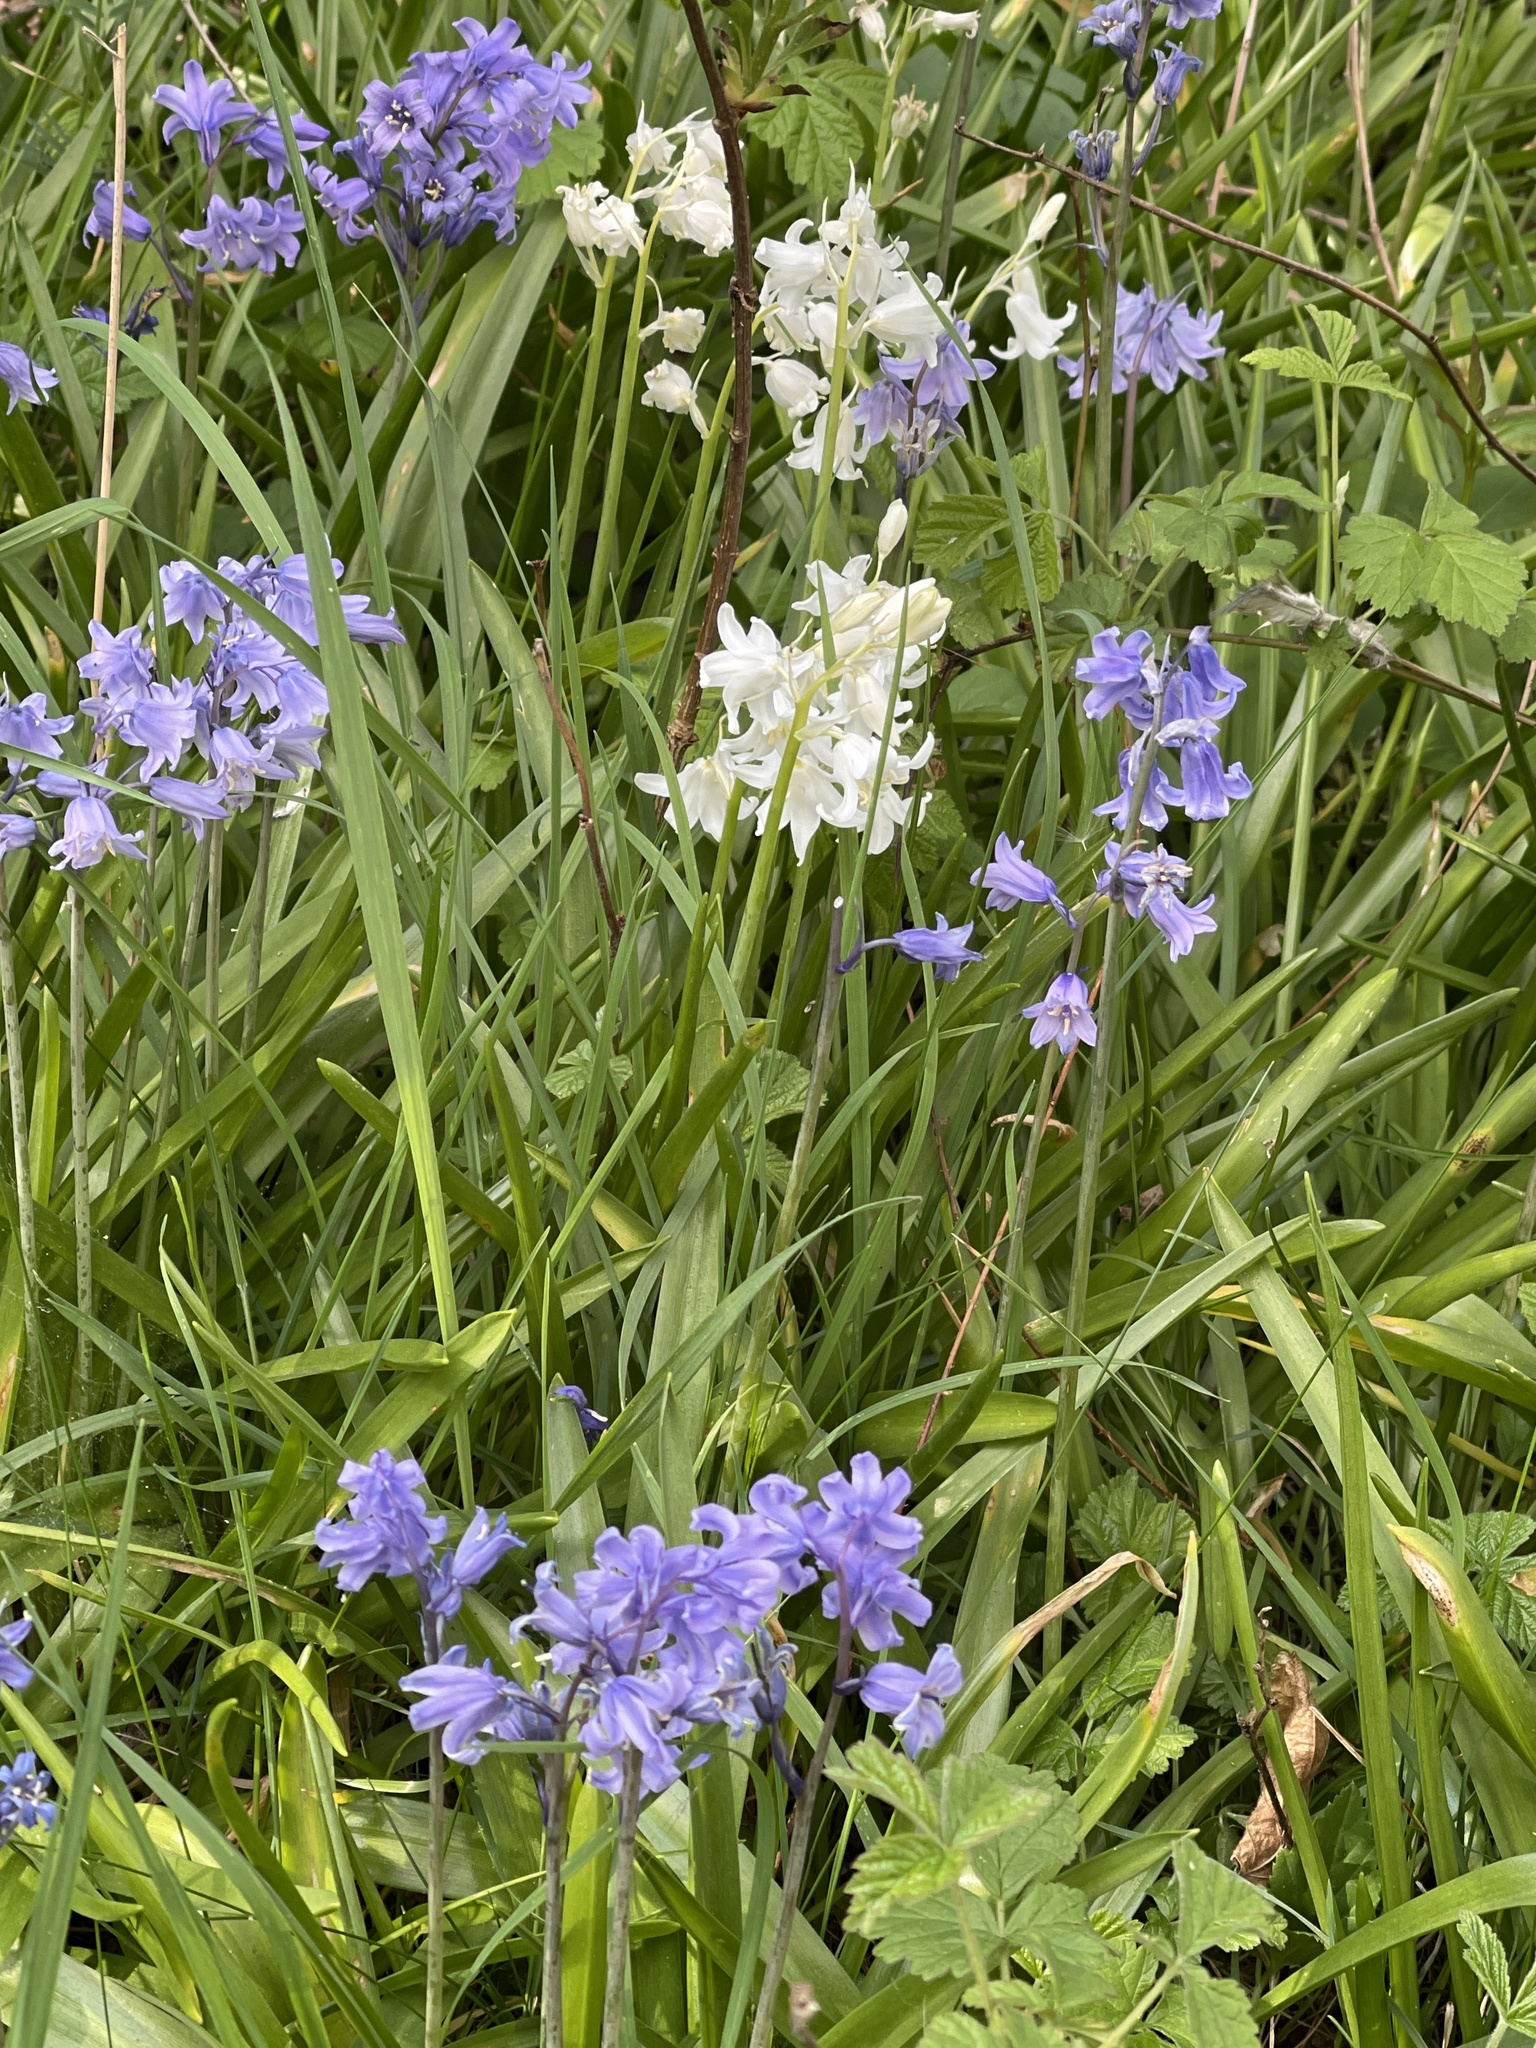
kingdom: Plantae
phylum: Tracheophyta
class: Liliopsida
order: Asparagales
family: Asparagaceae
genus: Hyacinthoides
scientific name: Hyacinthoides massartiana
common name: Hyacinthoides
